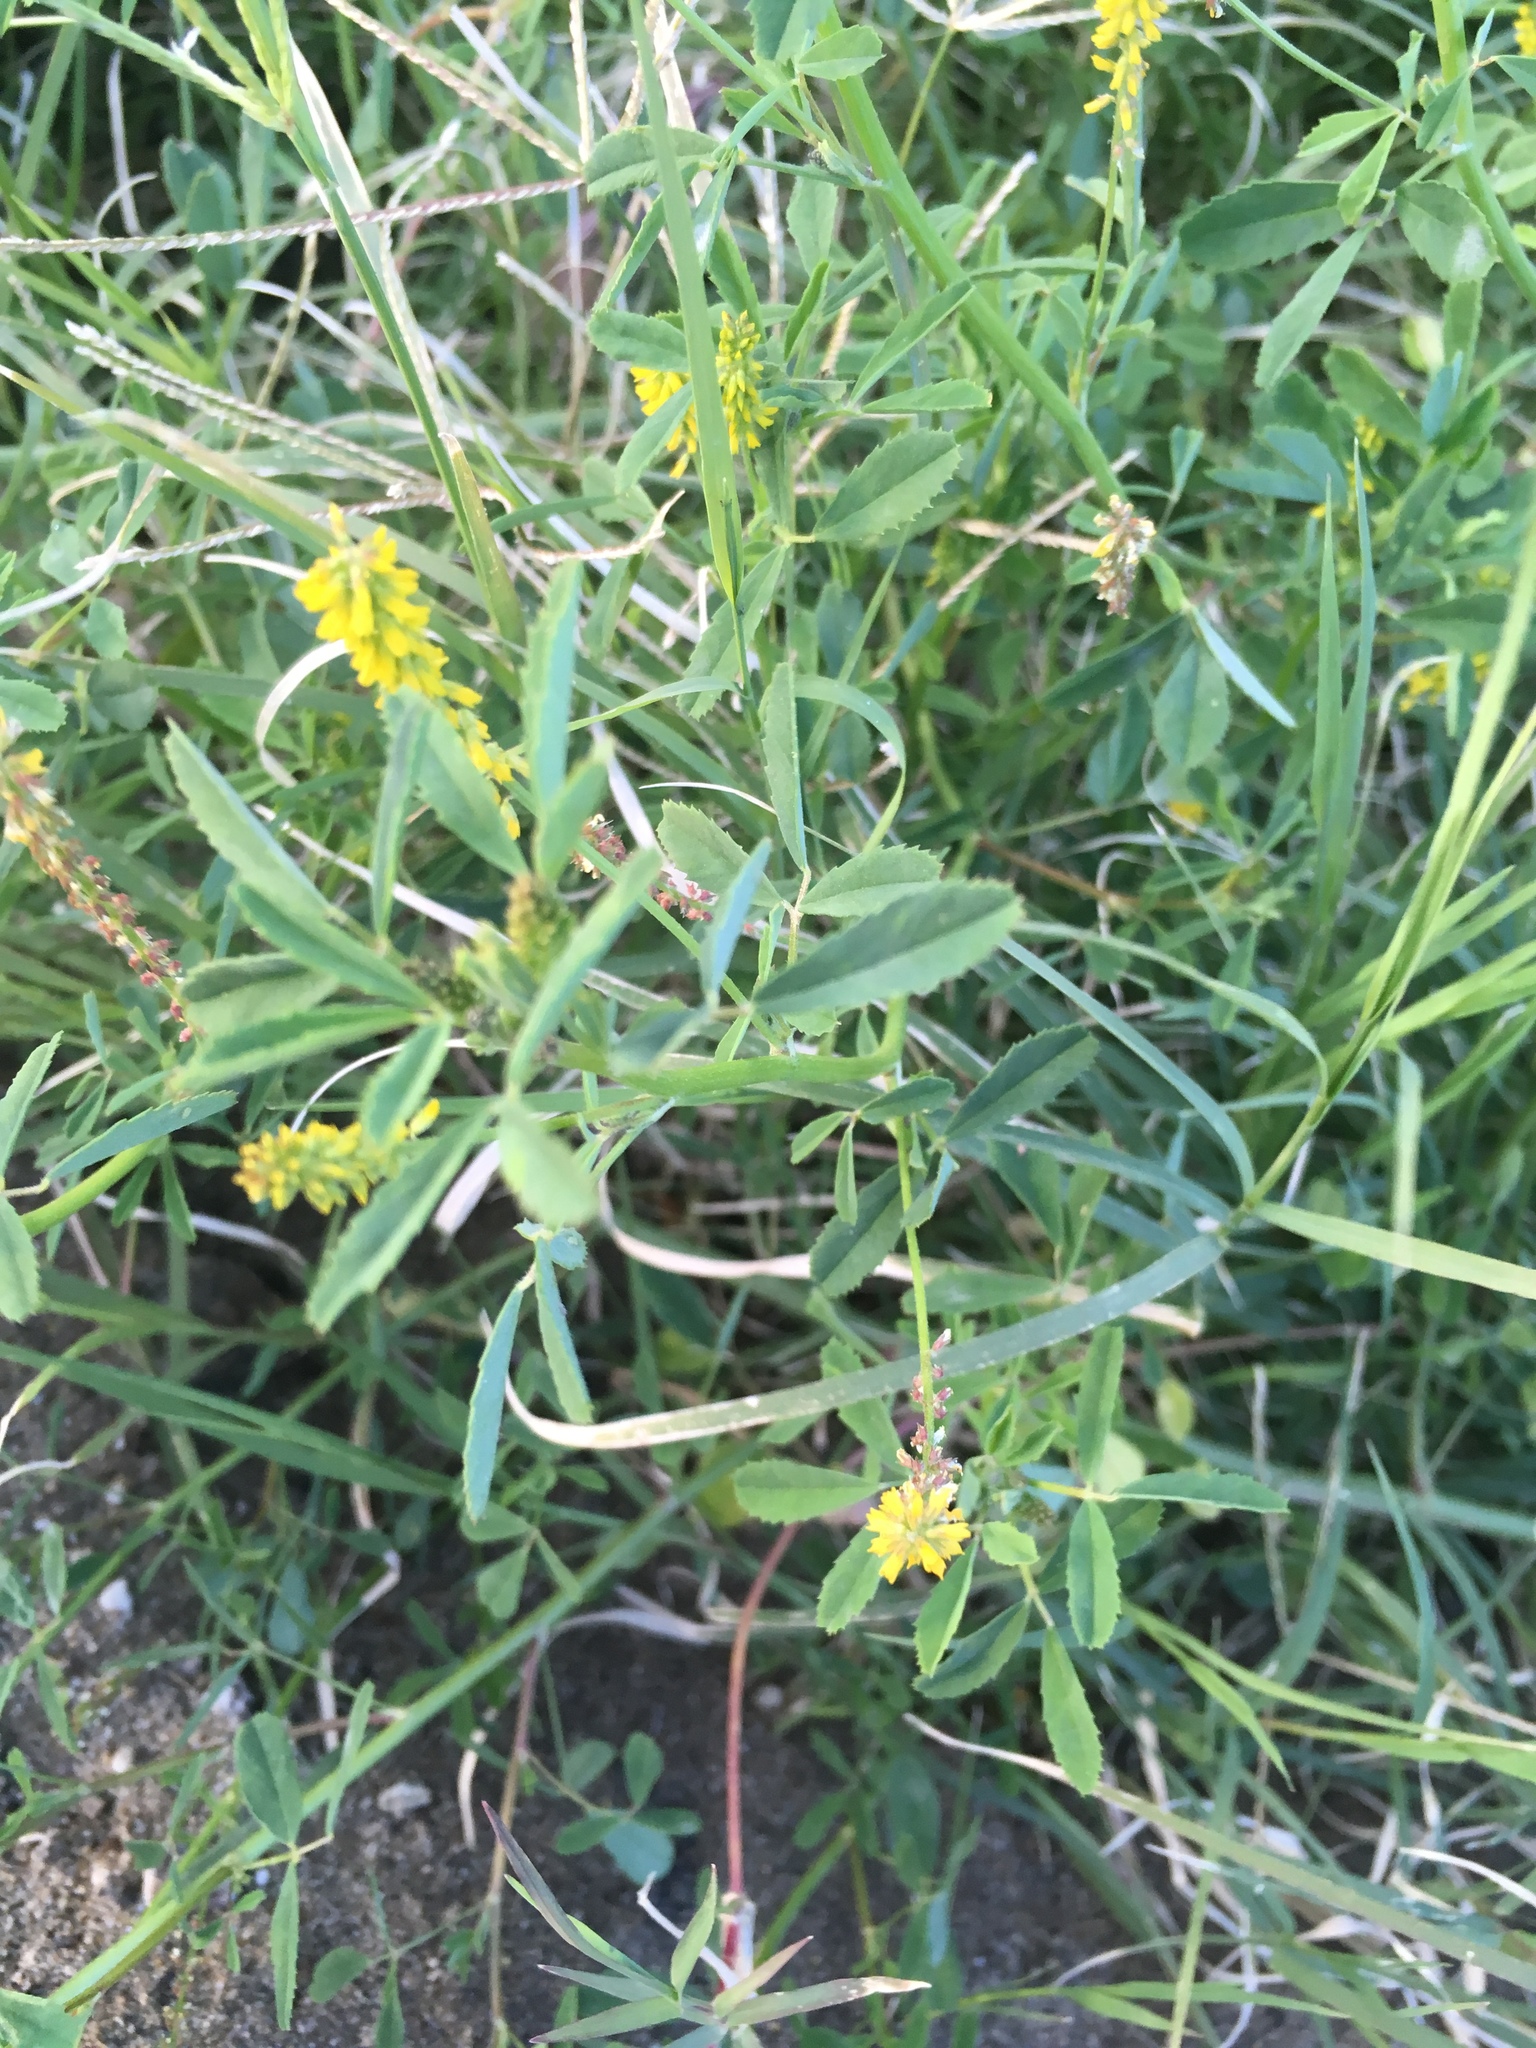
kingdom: Plantae
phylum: Tracheophyta
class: Magnoliopsida
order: Fabales
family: Fabaceae
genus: Melilotus
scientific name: Melilotus indicus
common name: Small melilot
